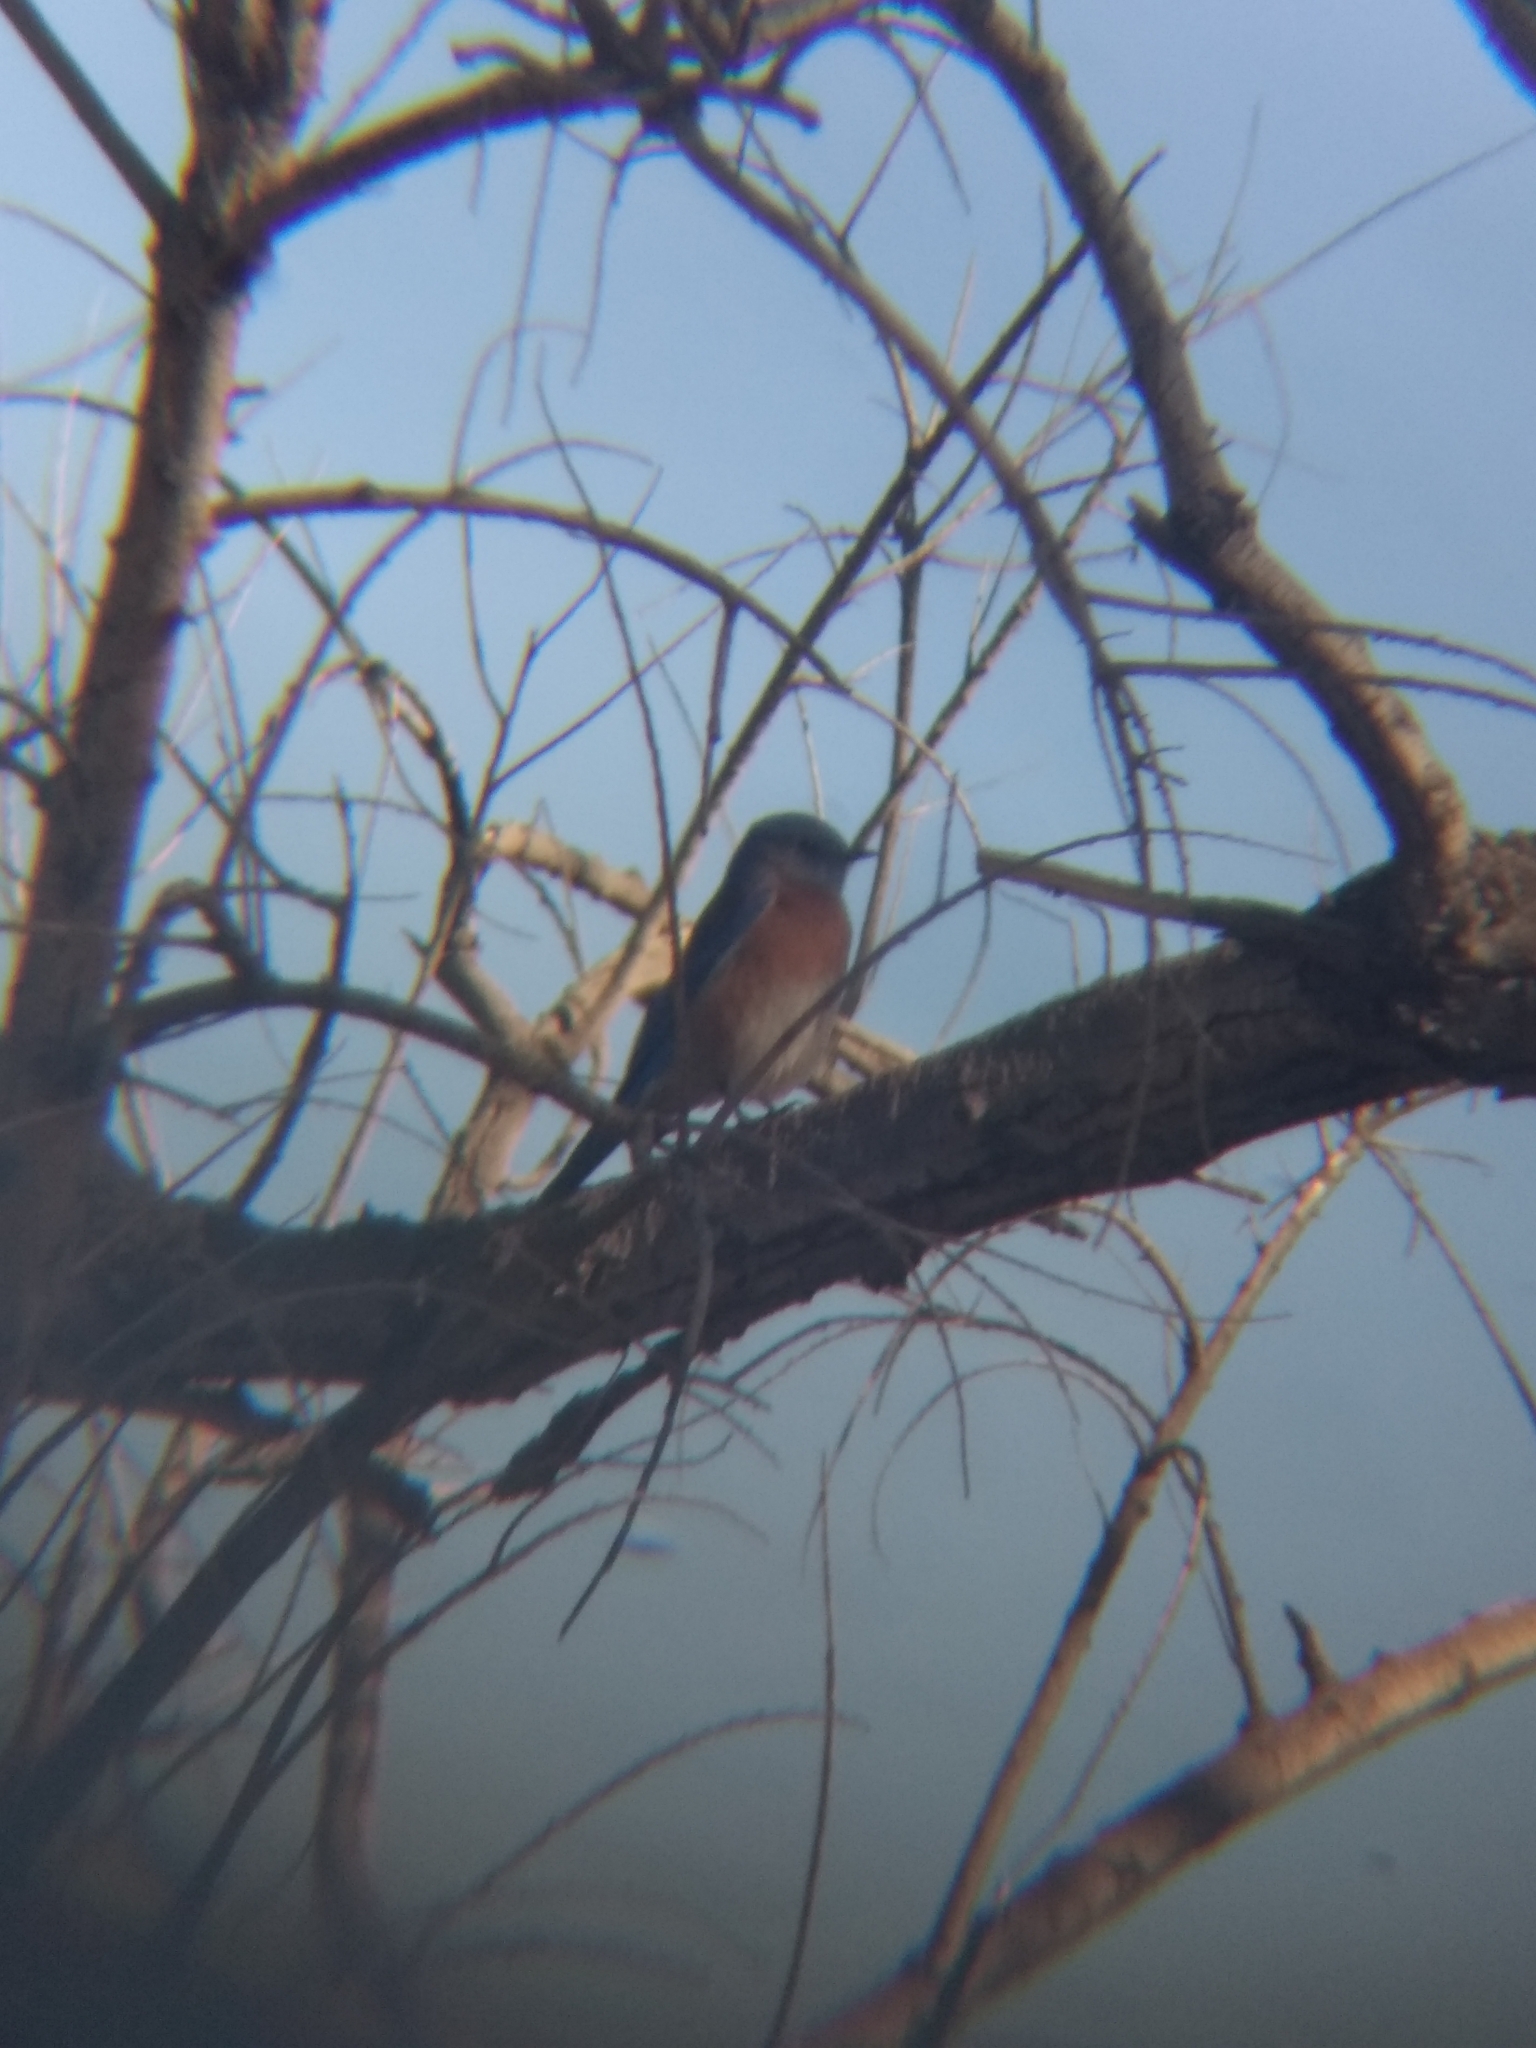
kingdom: Animalia
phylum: Chordata
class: Aves
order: Passeriformes
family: Turdidae
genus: Sialia
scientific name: Sialia mexicana
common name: Western bluebird
